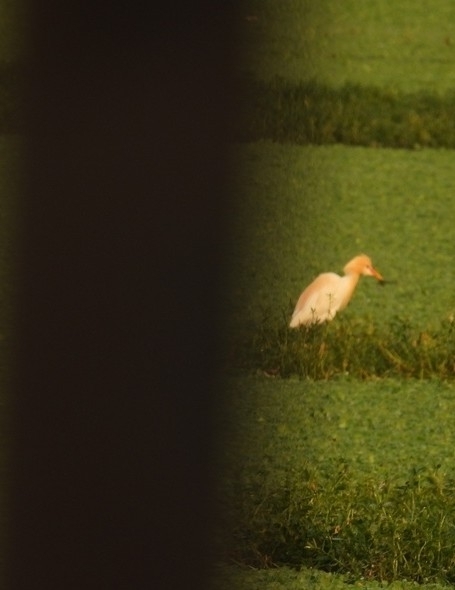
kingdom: Animalia
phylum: Chordata
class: Aves
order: Pelecaniformes
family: Ardeidae
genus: Bubulcus
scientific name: Bubulcus coromandus
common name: Eastern cattle egret
